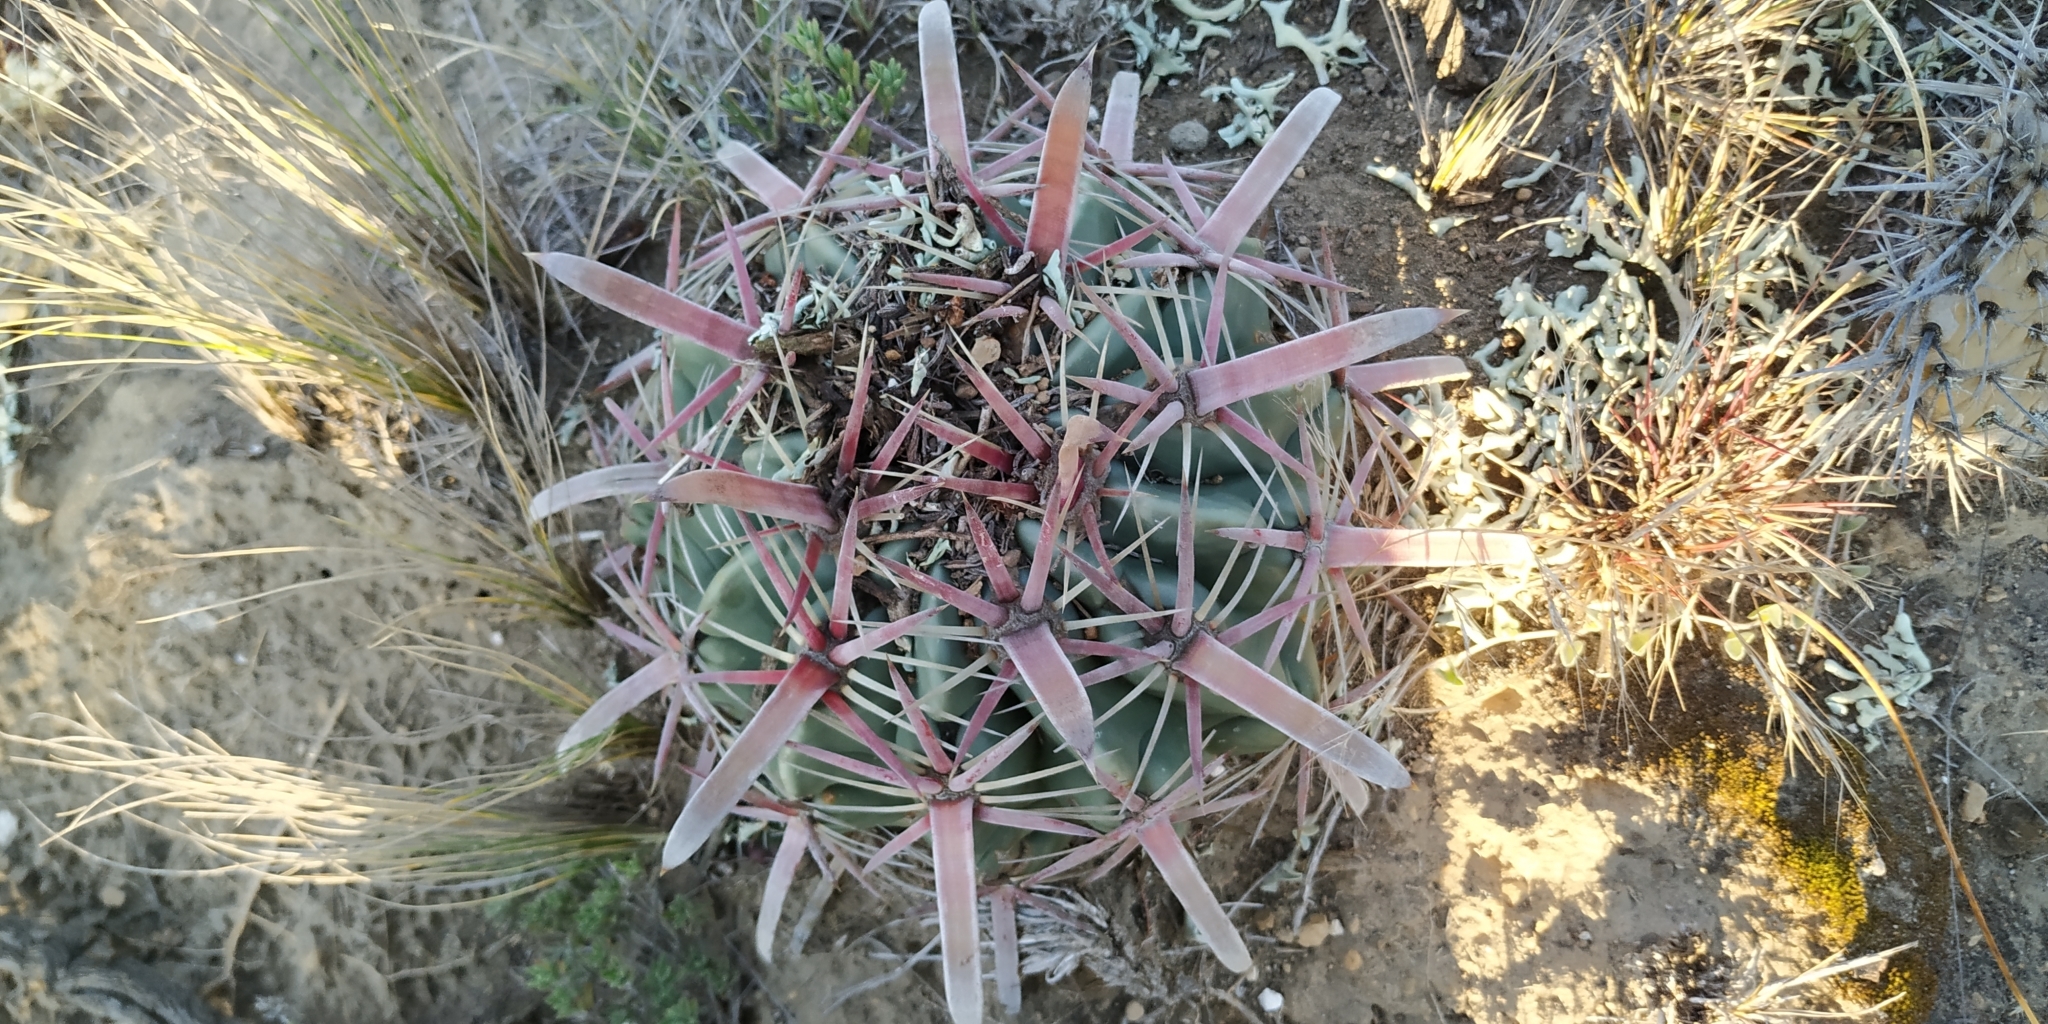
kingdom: Plantae
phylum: Tracheophyta
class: Magnoliopsida
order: Caryophyllales
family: Cactaceae
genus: Ferocactus
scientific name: Ferocactus latispinus
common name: Devil's-tongue cactus
